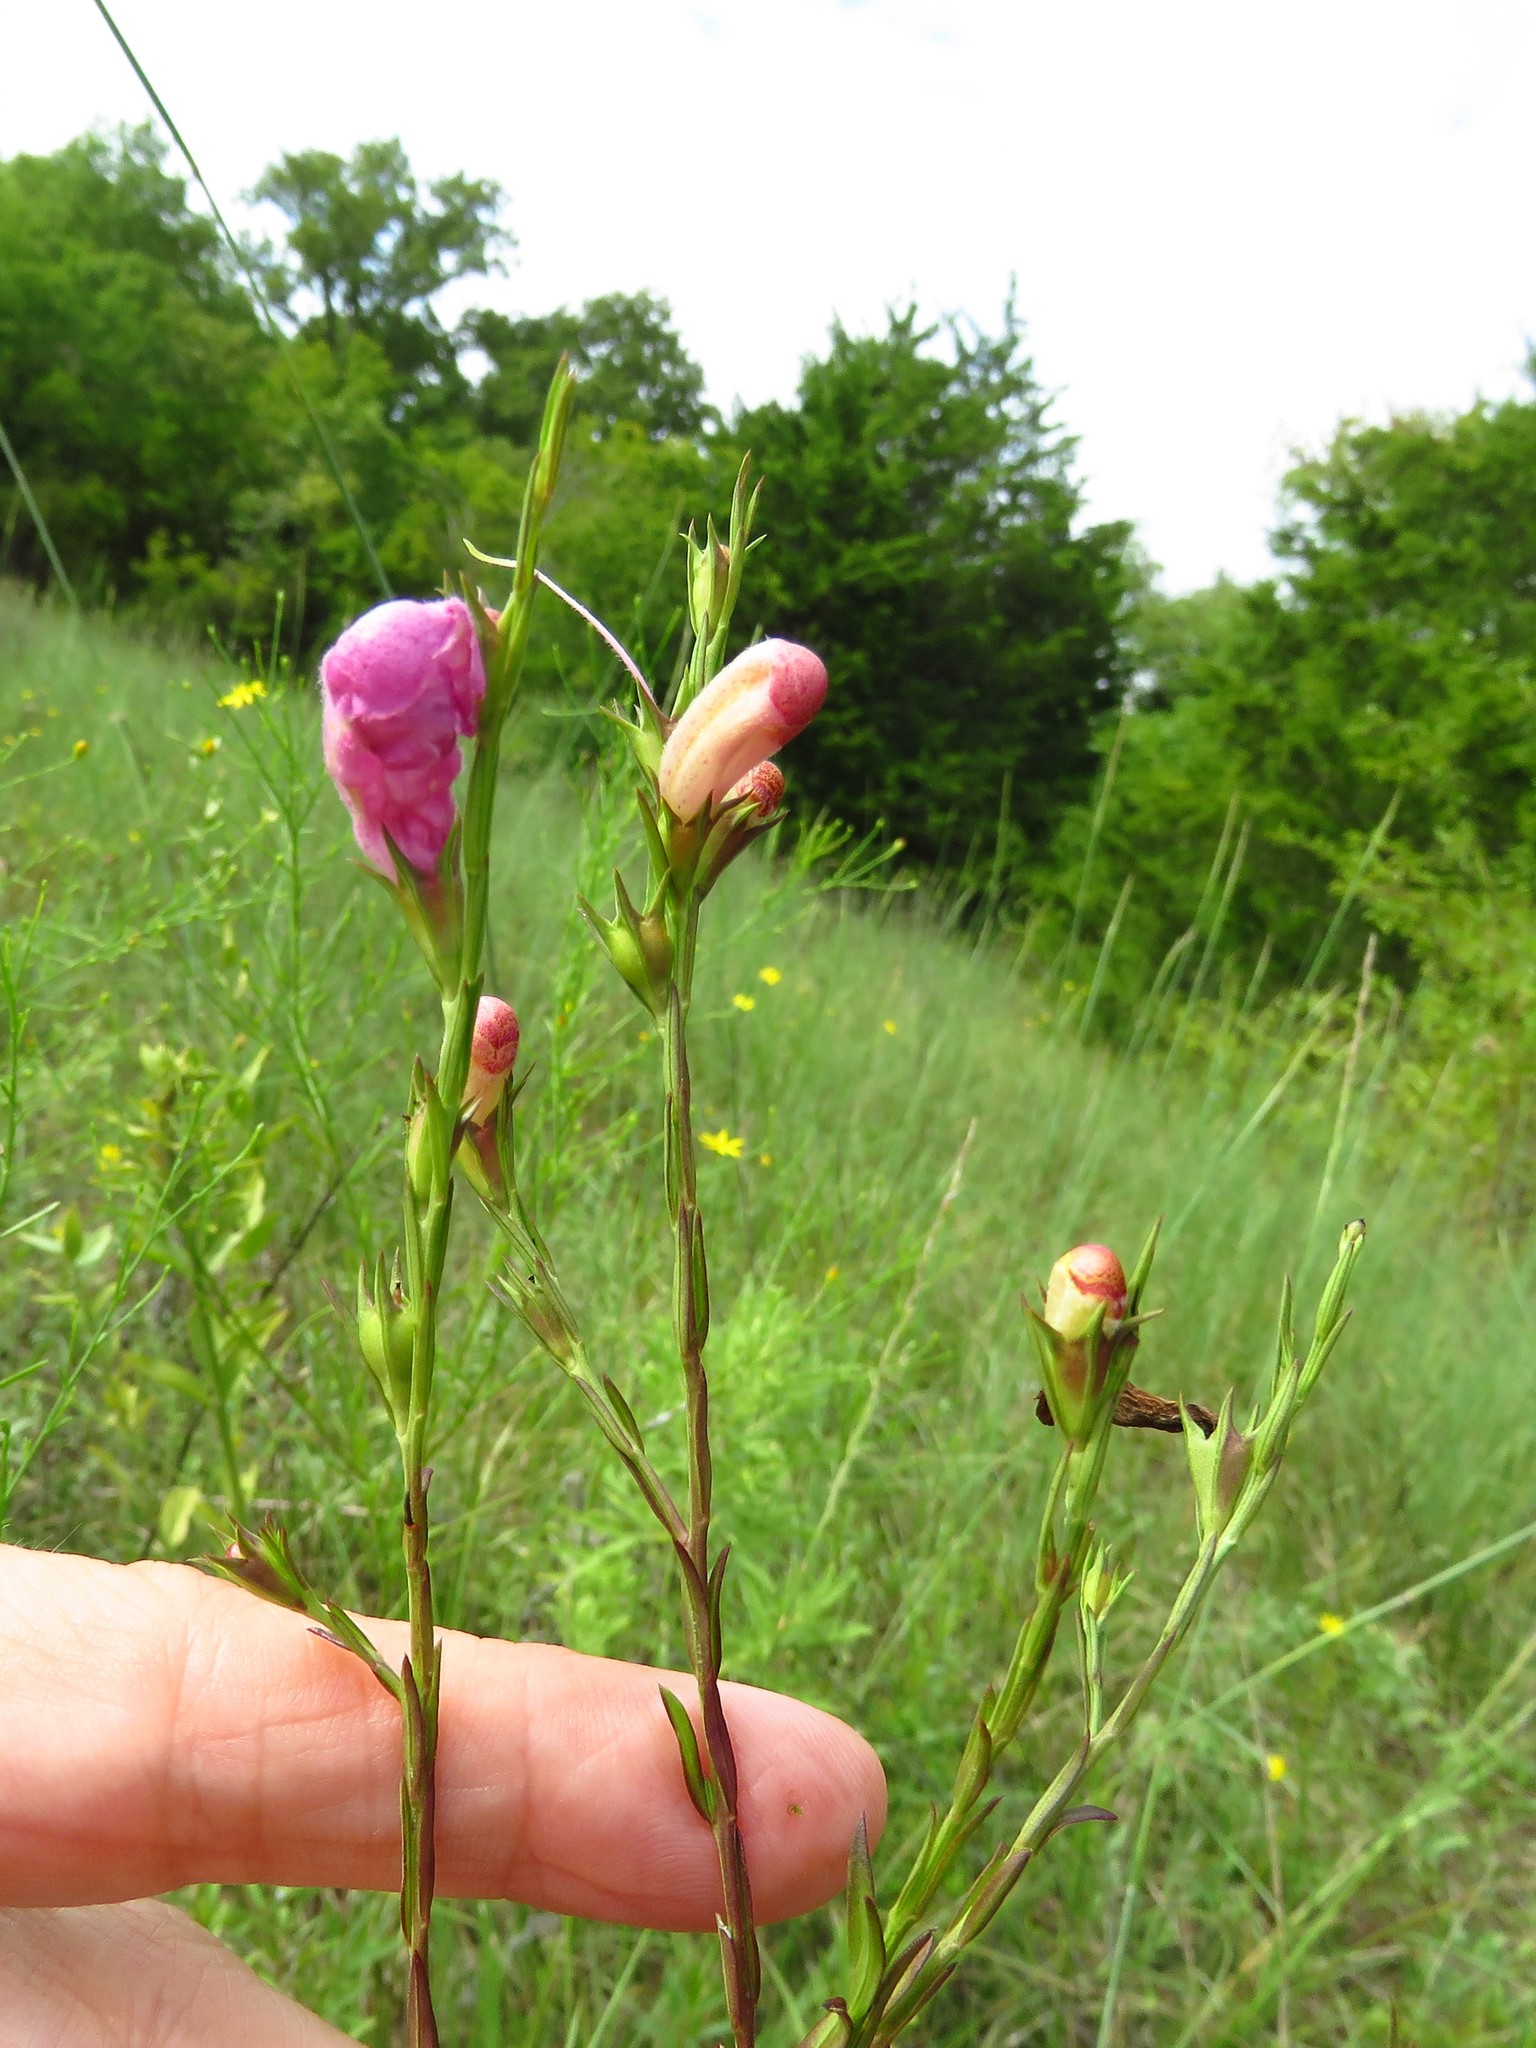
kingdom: Plantae
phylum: Tracheophyta
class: Magnoliopsida
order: Lamiales
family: Orobanchaceae
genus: Agalinis
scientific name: Agalinis heterophylla
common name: Prairie agalinis
